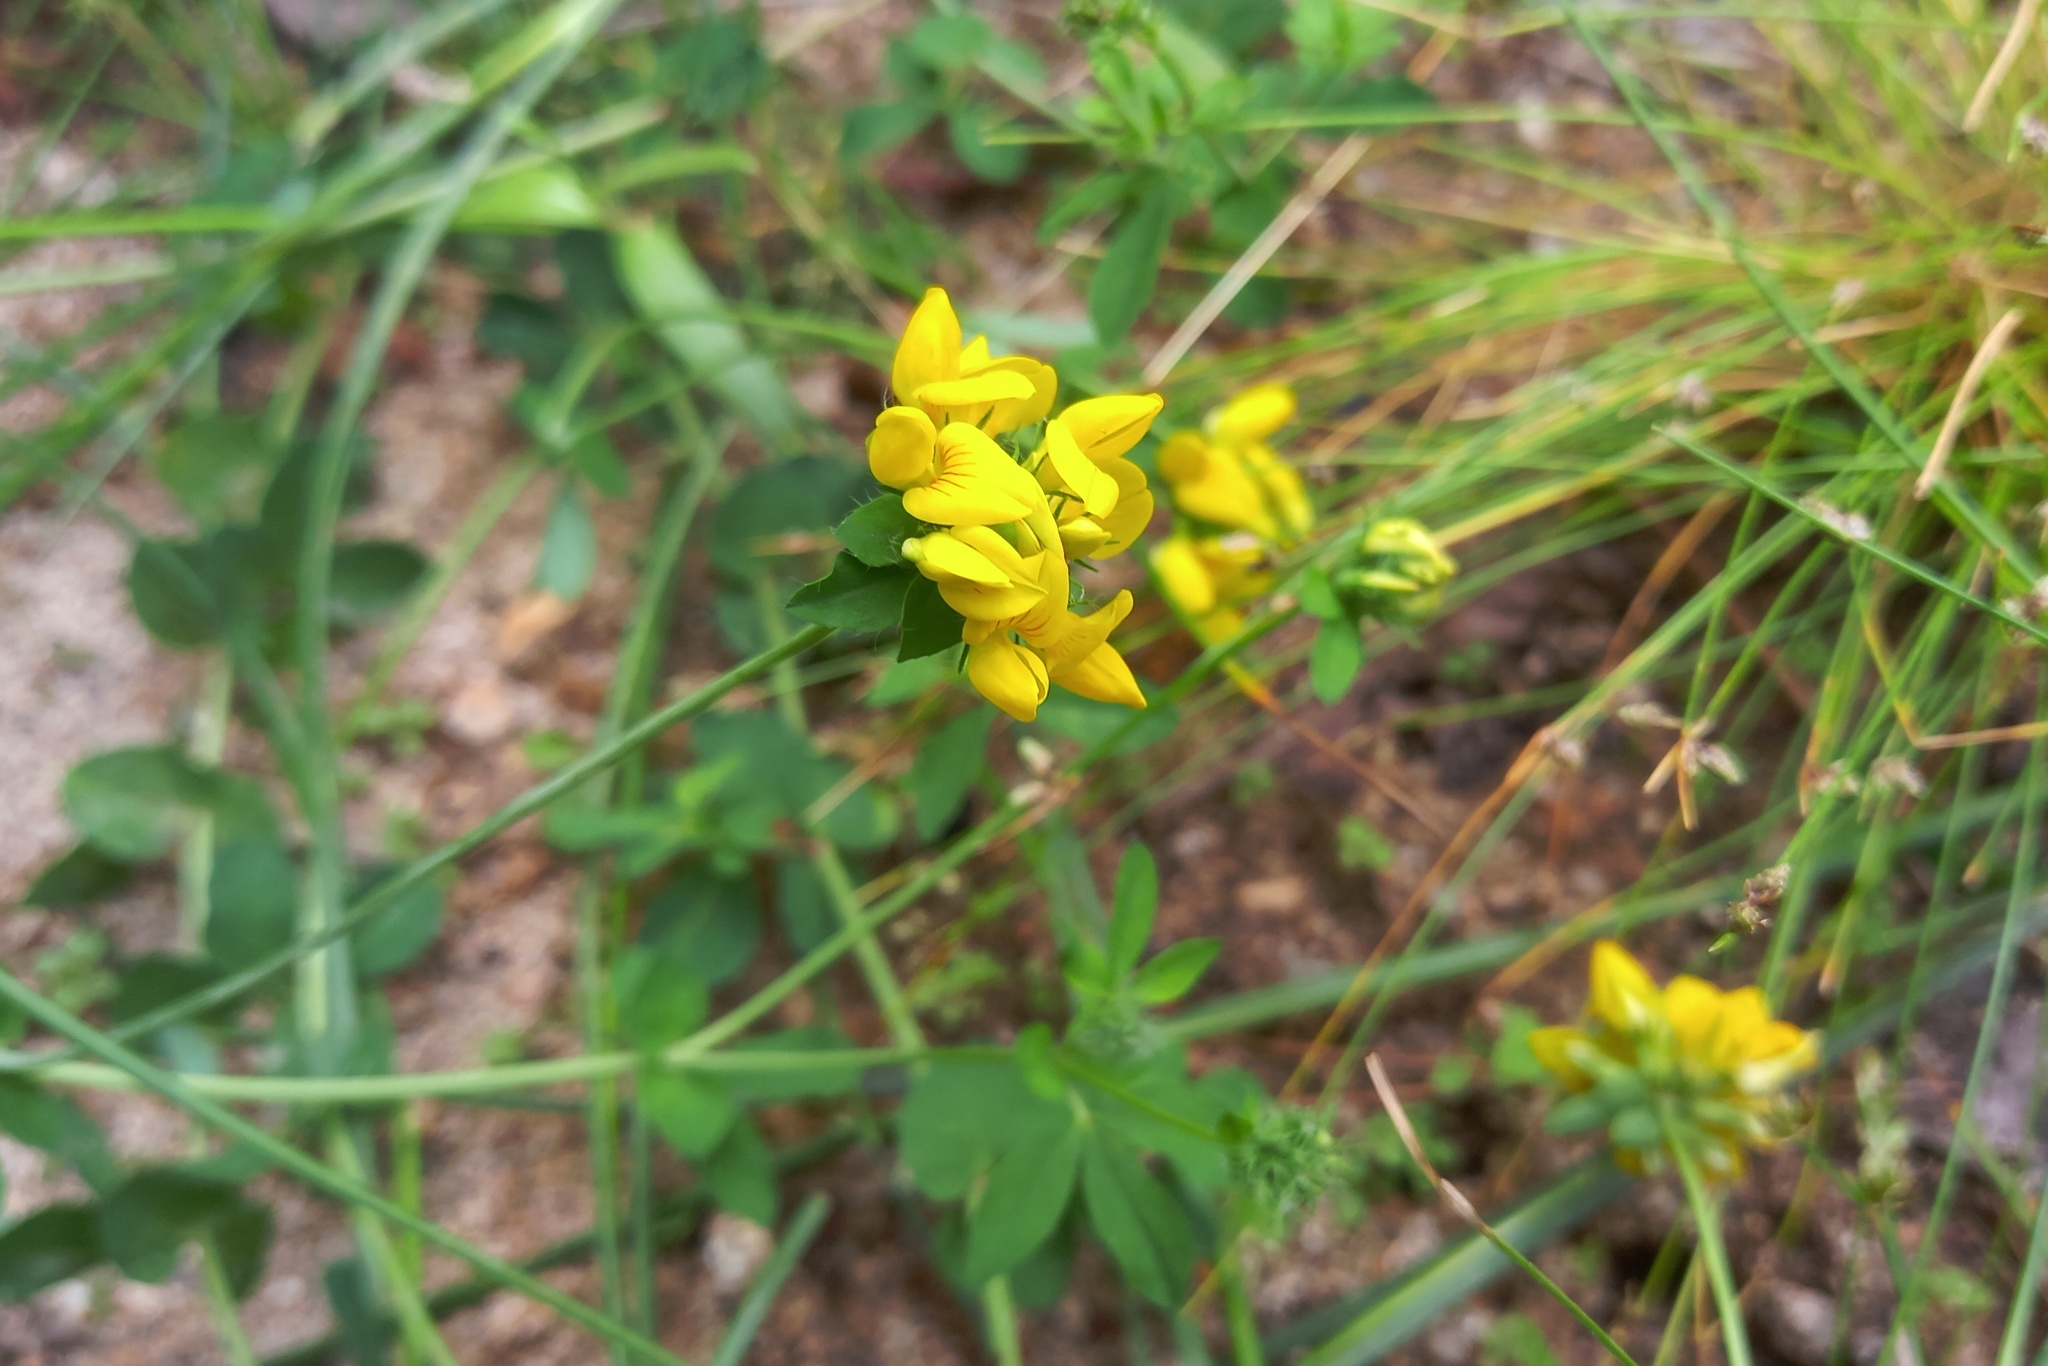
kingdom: Plantae
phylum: Tracheophyta
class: Magnoliopsida
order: Fabales
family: Fabaceae
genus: Lotus
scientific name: Lotus pedunculatus
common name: Greater birdsfoot-trefoil
